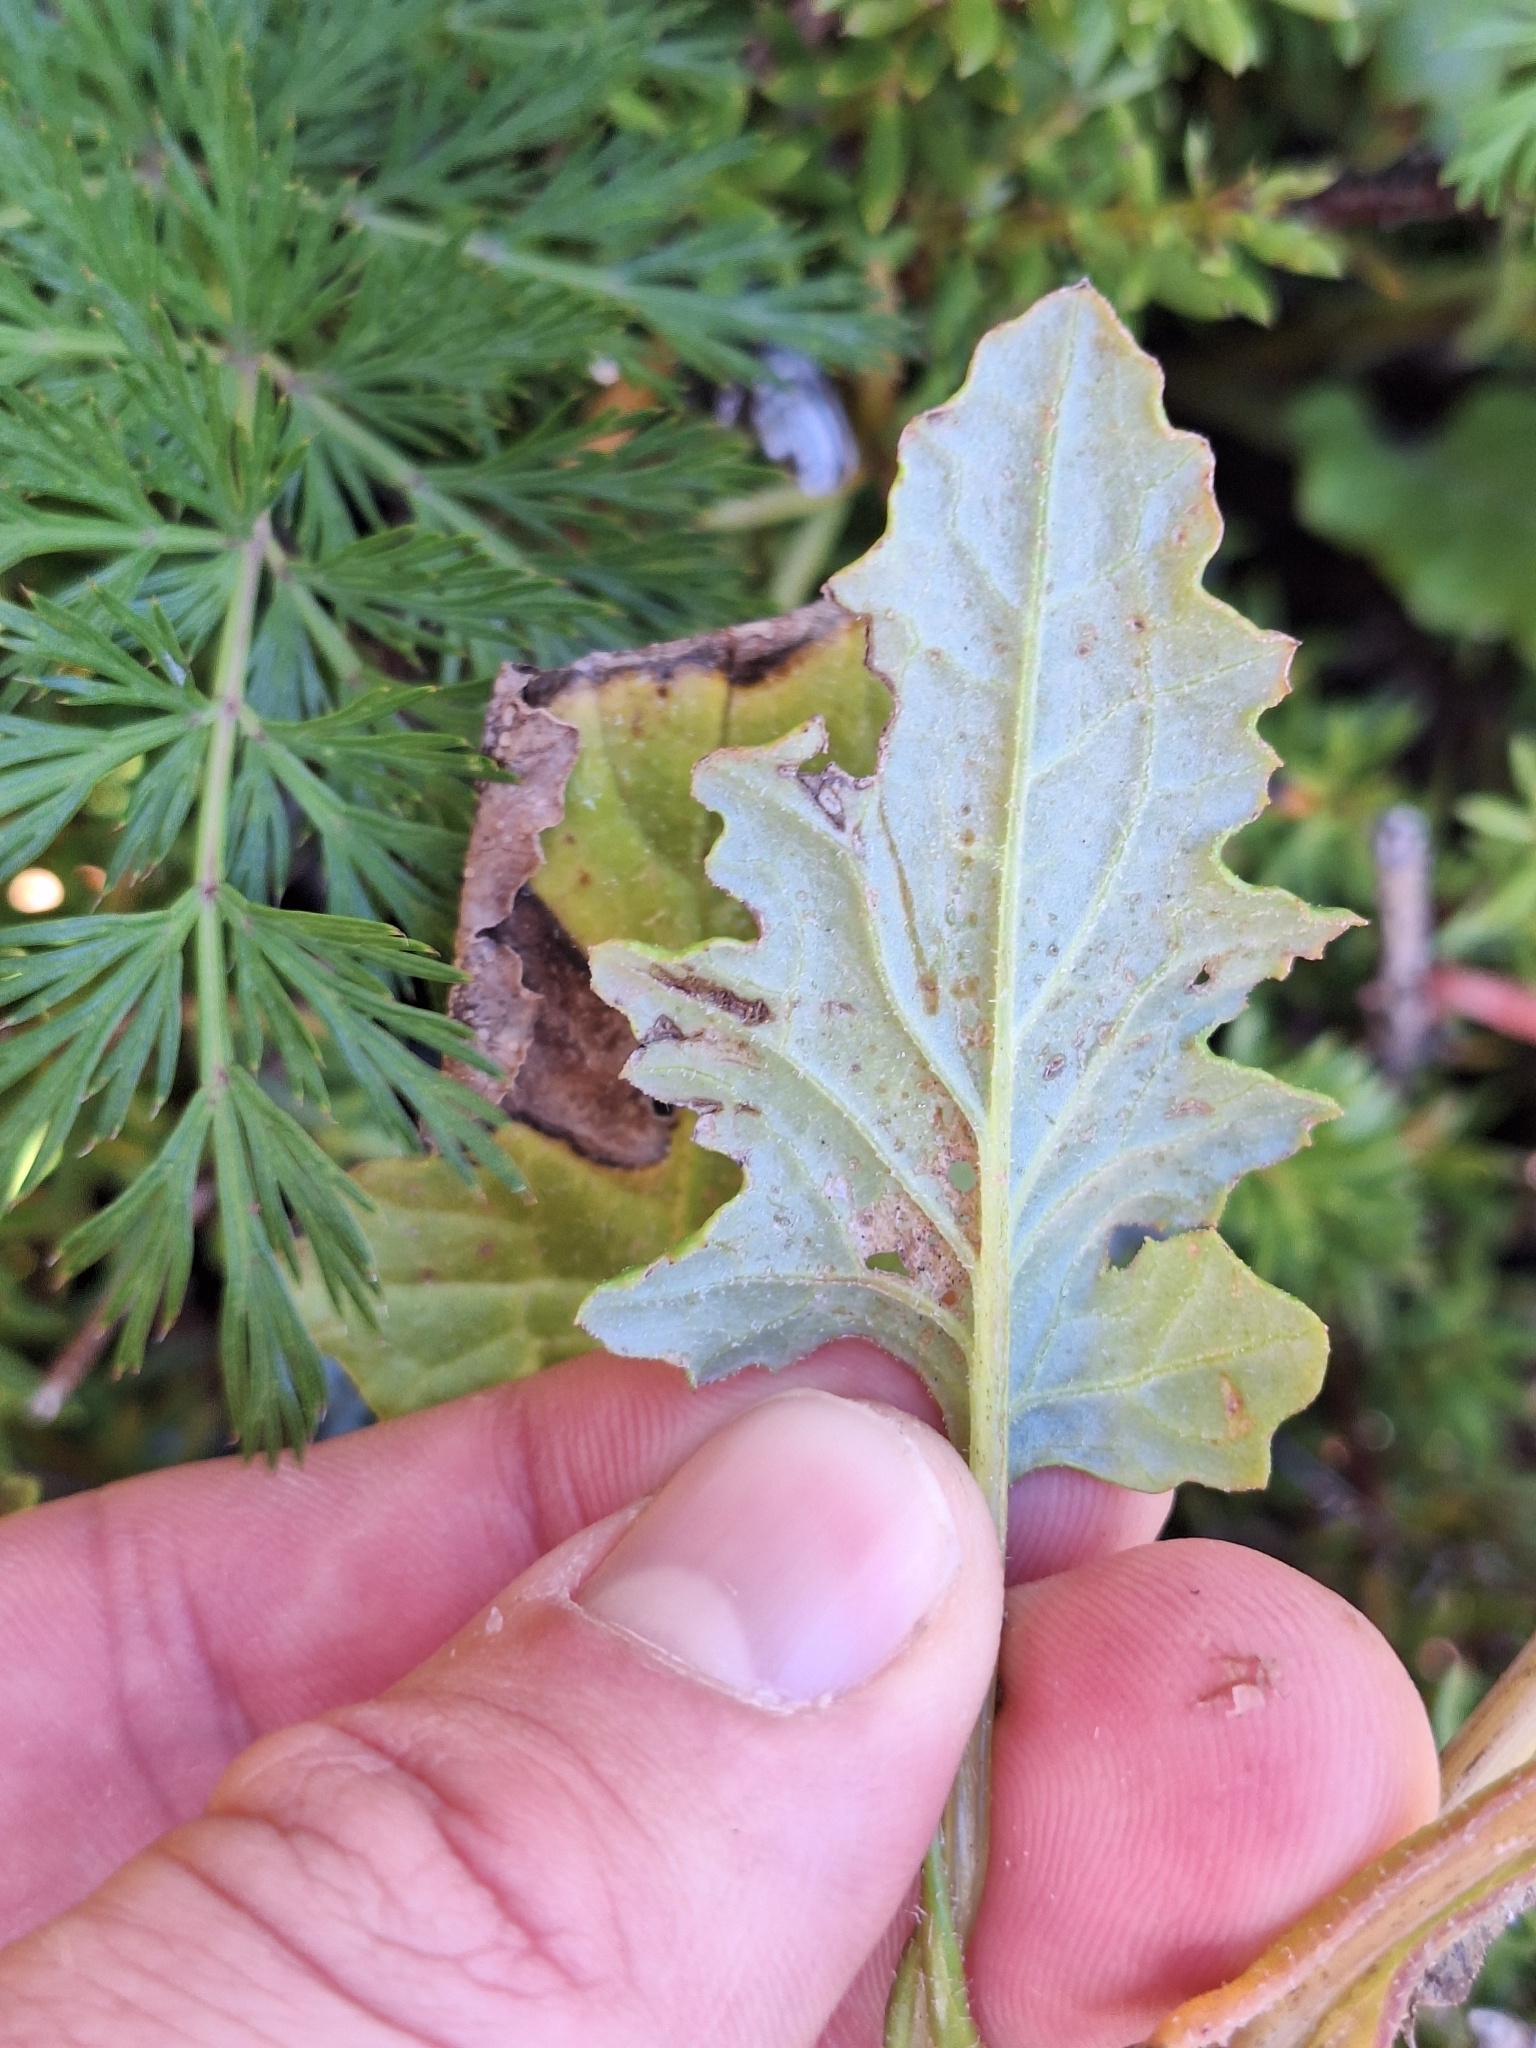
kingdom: Plantae
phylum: Tracheophyta
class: Magnoliopsida
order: Asterales
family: Asteraceae
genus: Senecio
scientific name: Senecio wairauensis
